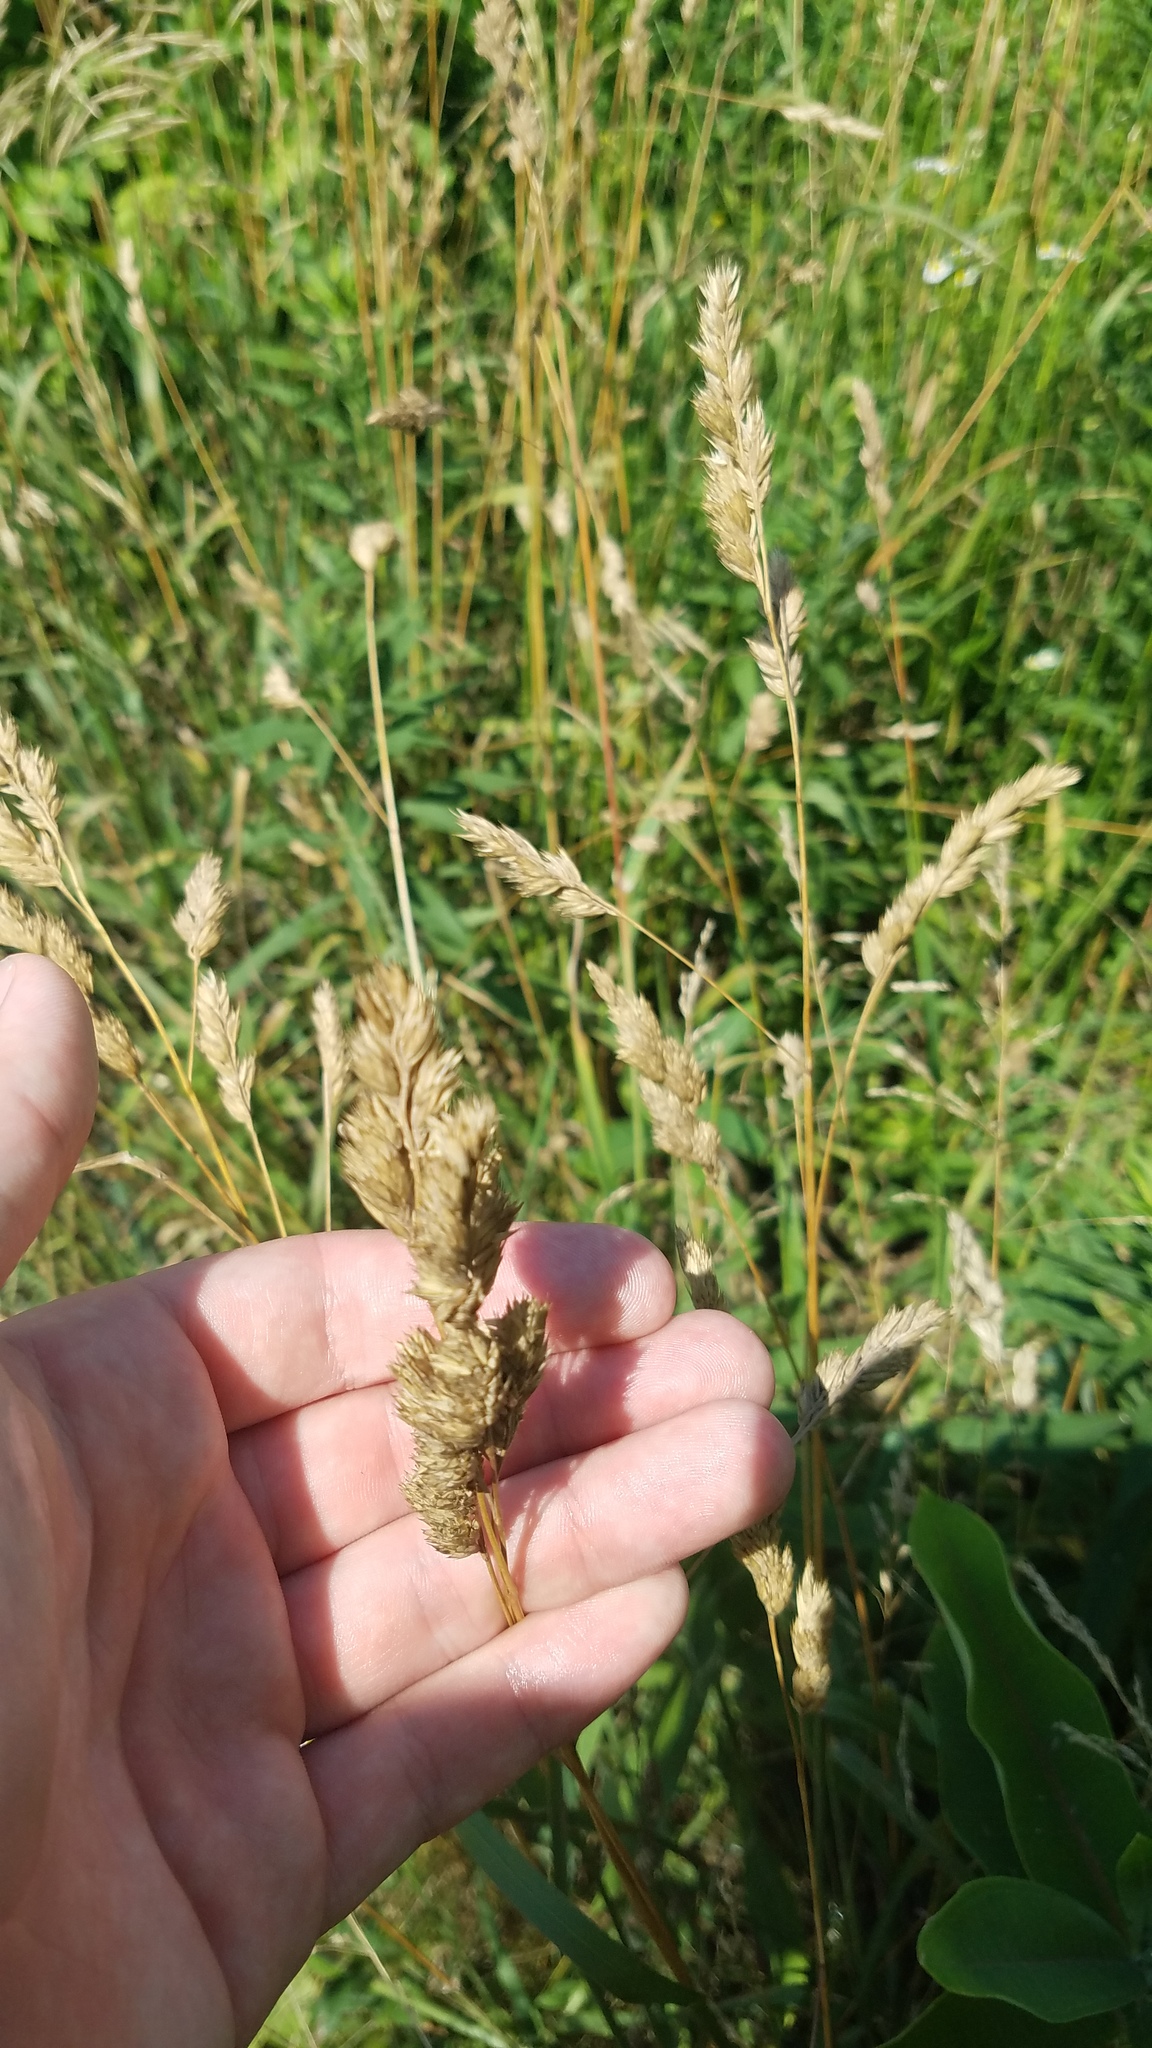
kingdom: Plantae
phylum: Tracheophyta
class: Liliopsida
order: Poales
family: Poaceae
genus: Dactylis
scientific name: Dactylis glomerata
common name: Orchardgrass
